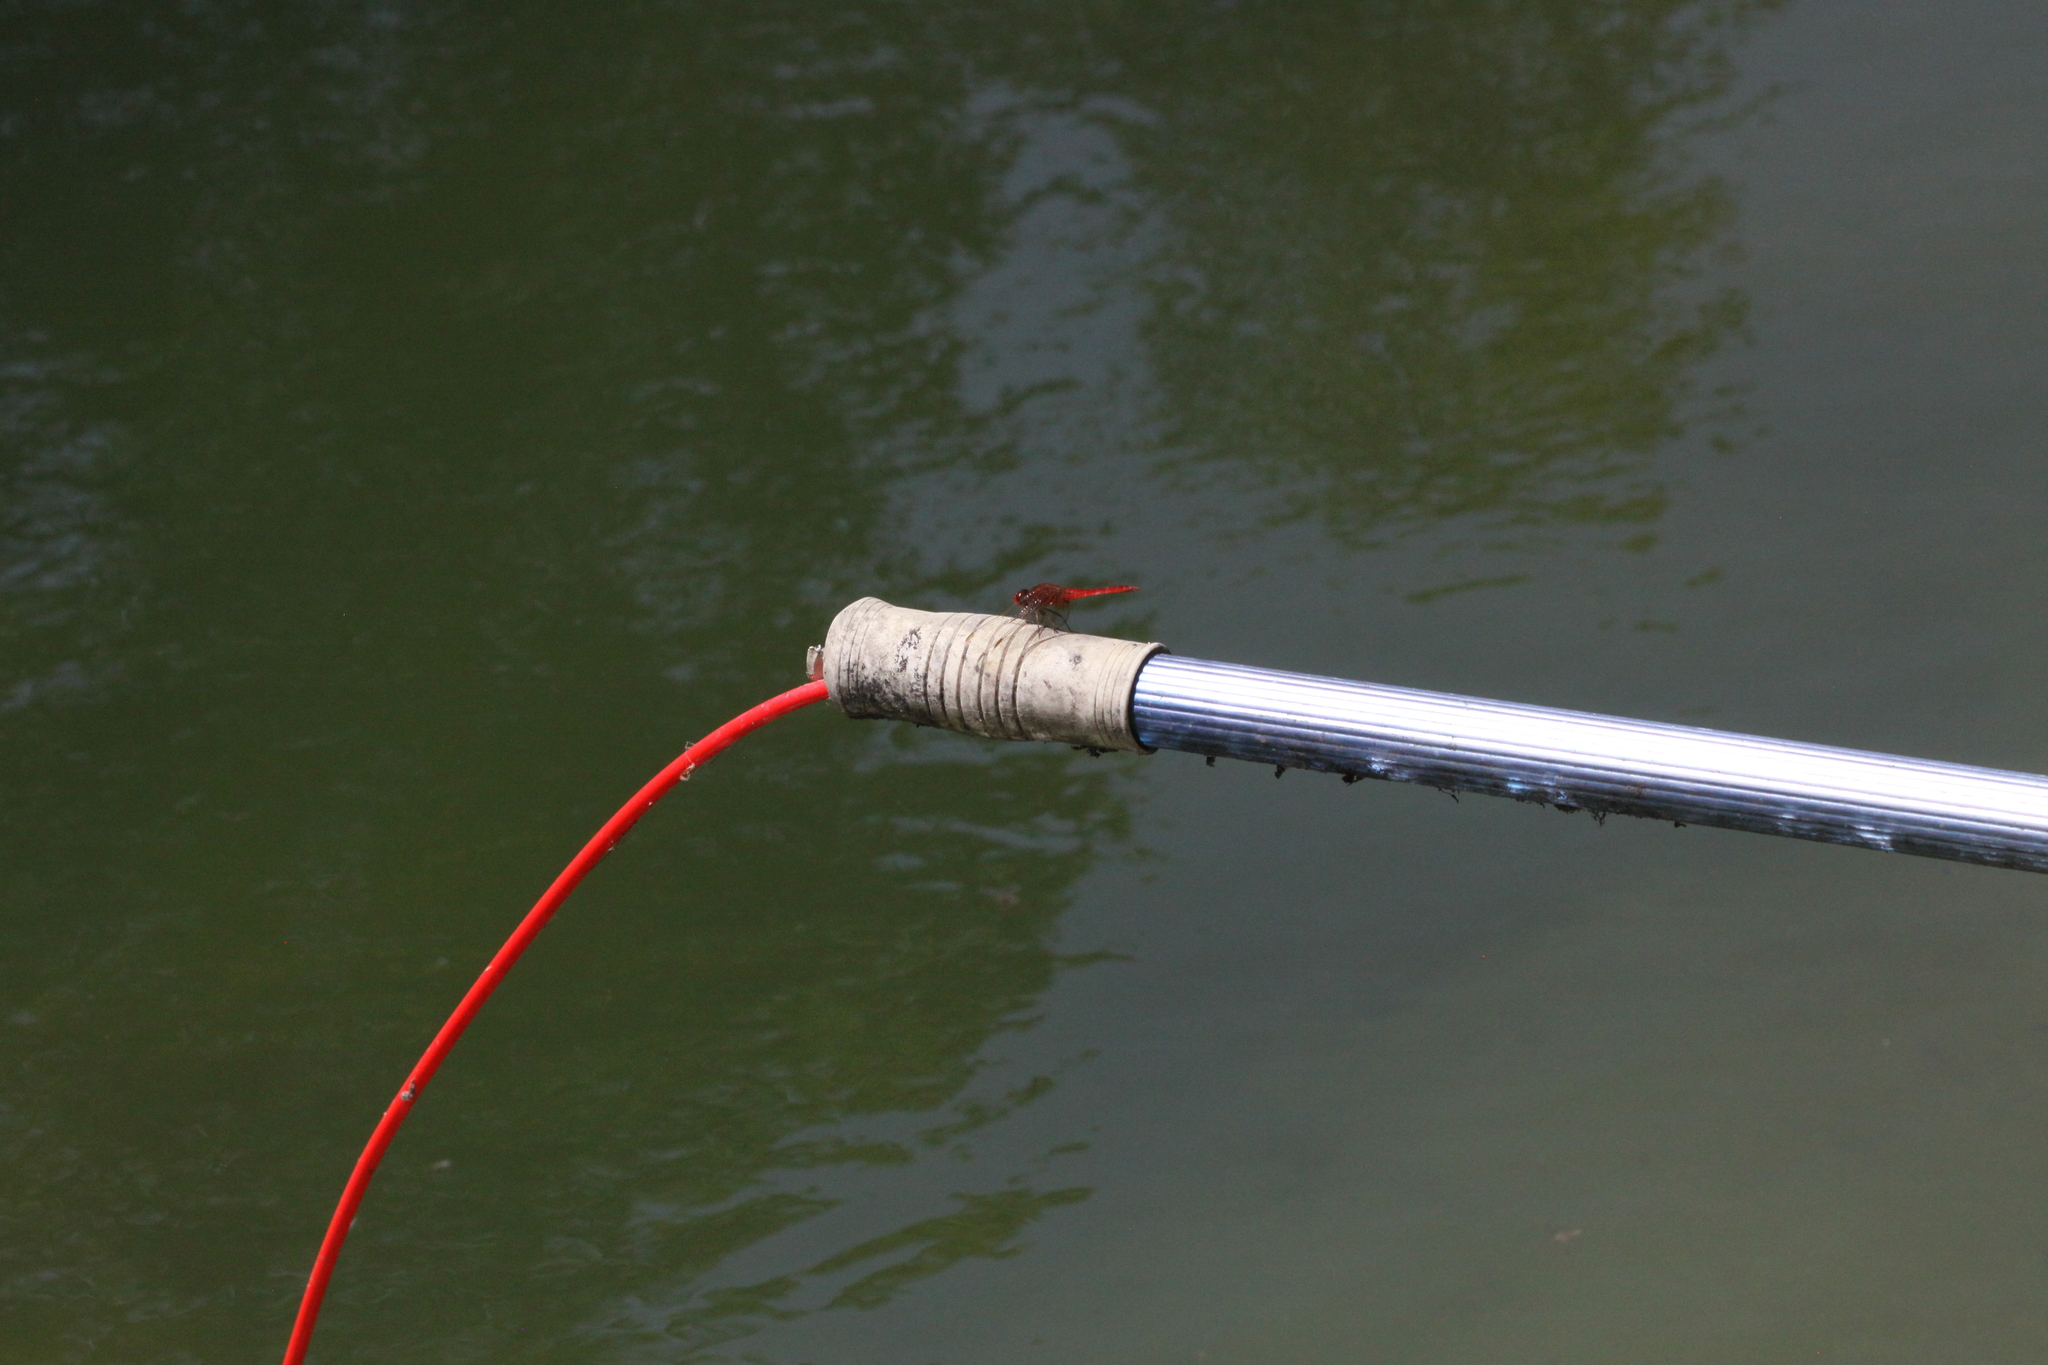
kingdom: Animalia
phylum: Arthropoda
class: Insecta
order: Odonata
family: Libellulidae
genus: Crocothemis
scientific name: Crocothemis erythraea
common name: Scarlet dragonfly
